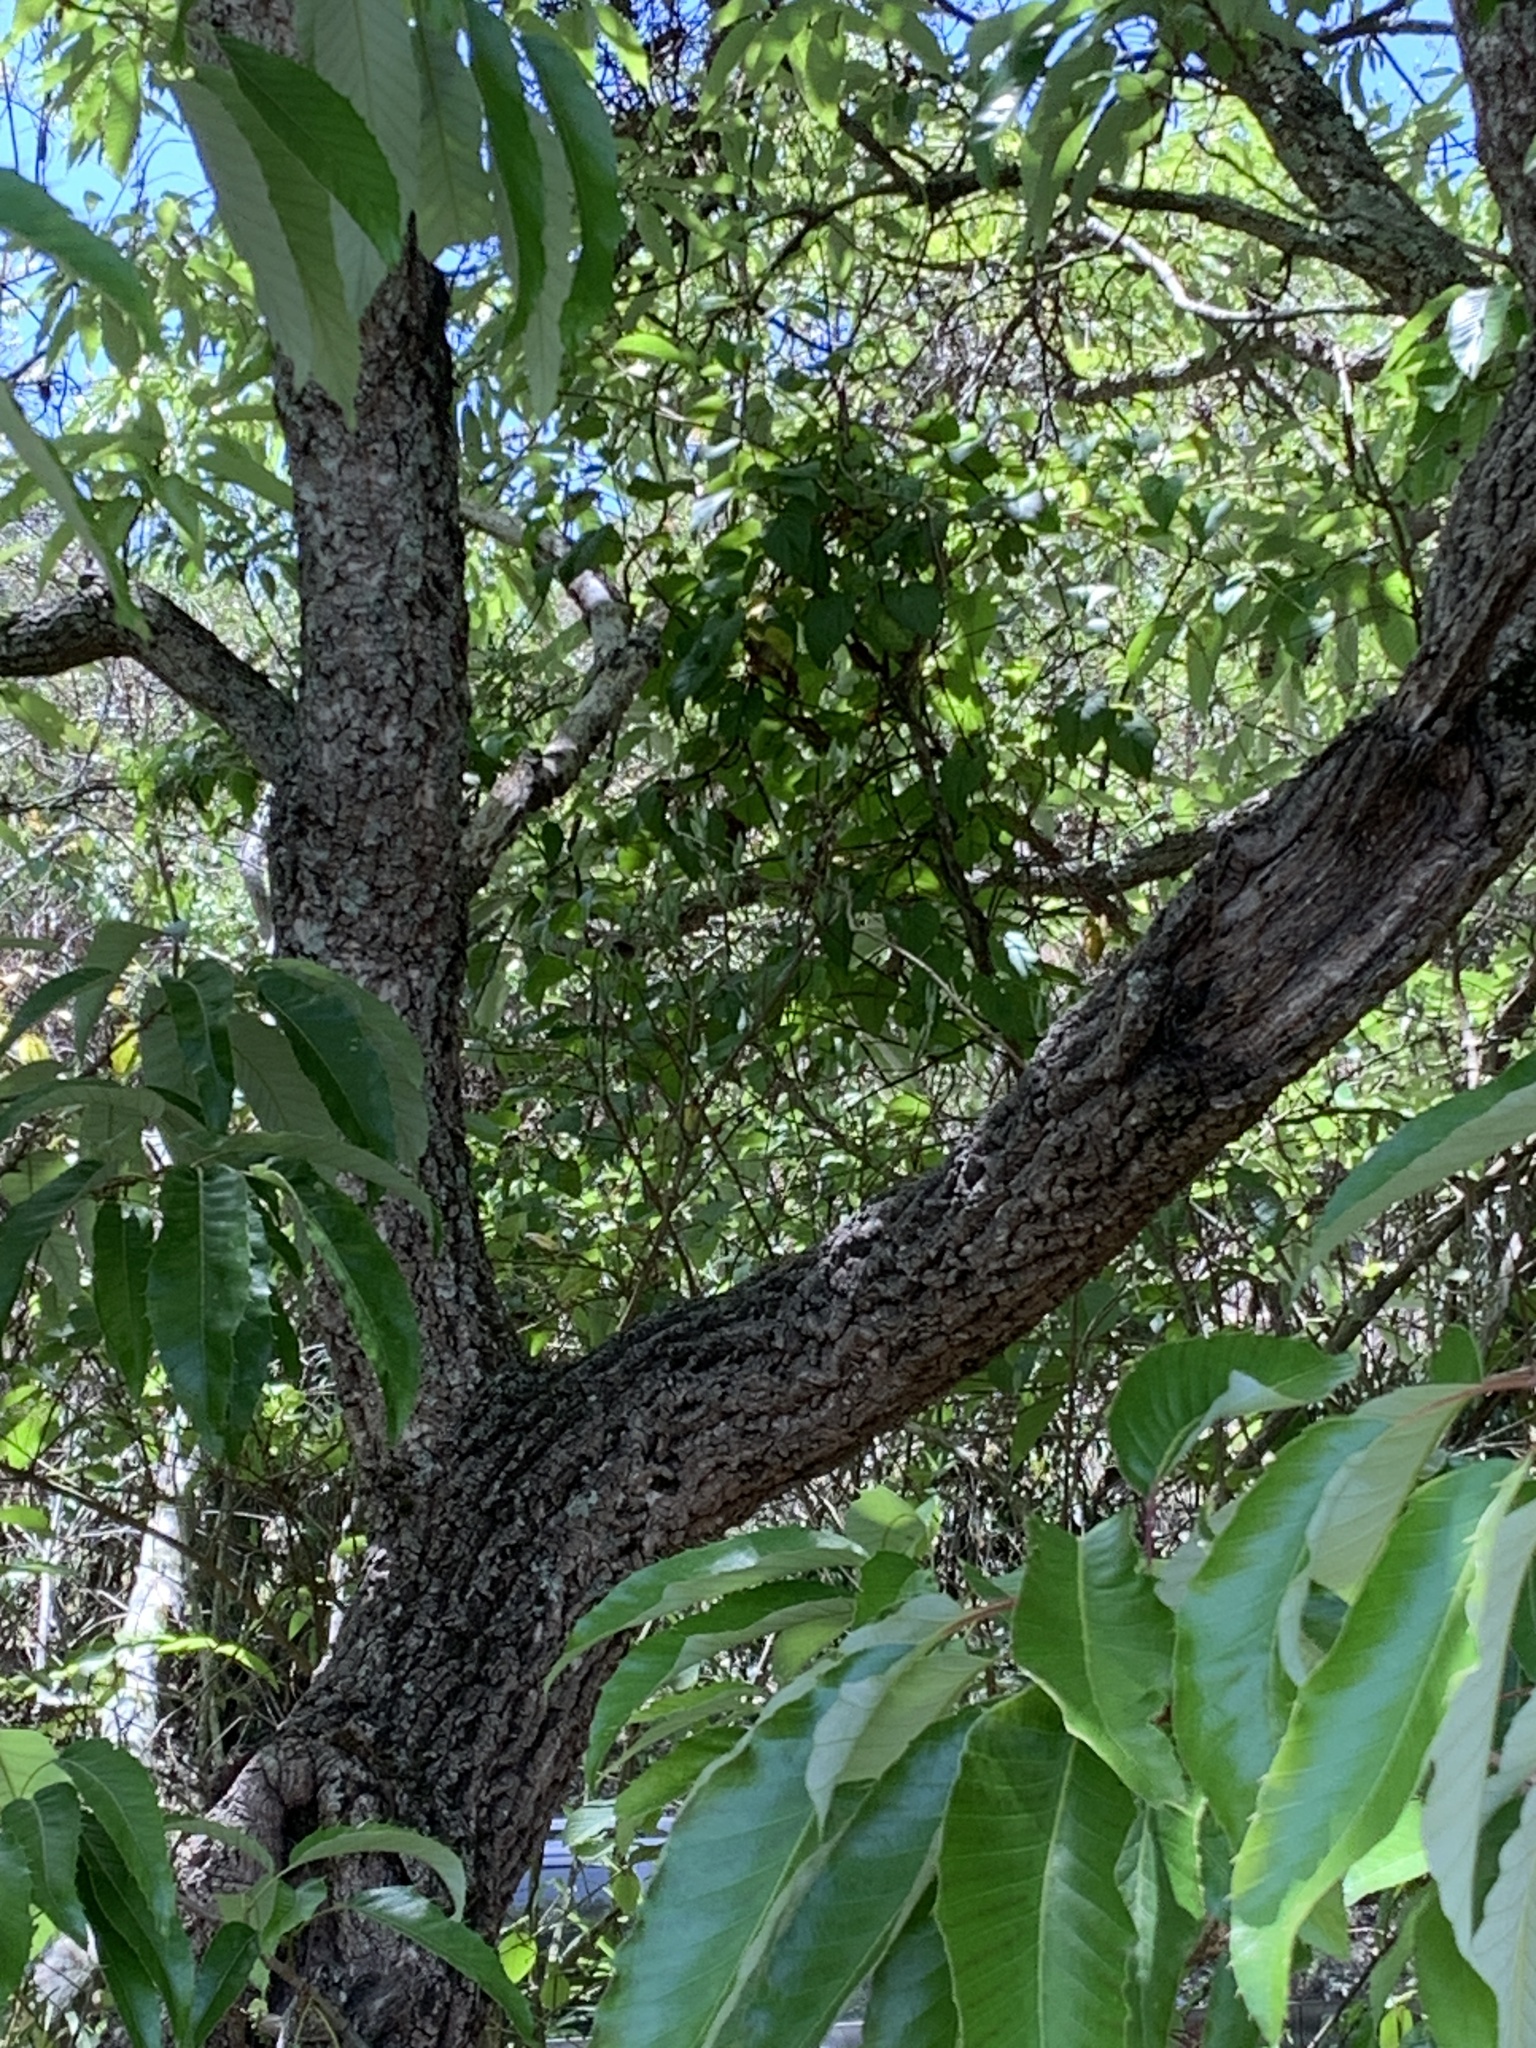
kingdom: Plantae
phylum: Tracheophyta
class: Magnoliopsida
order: Fagales
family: Fagaceae
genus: Quercus
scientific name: Quercus variabilis
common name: Chinese cork oak
